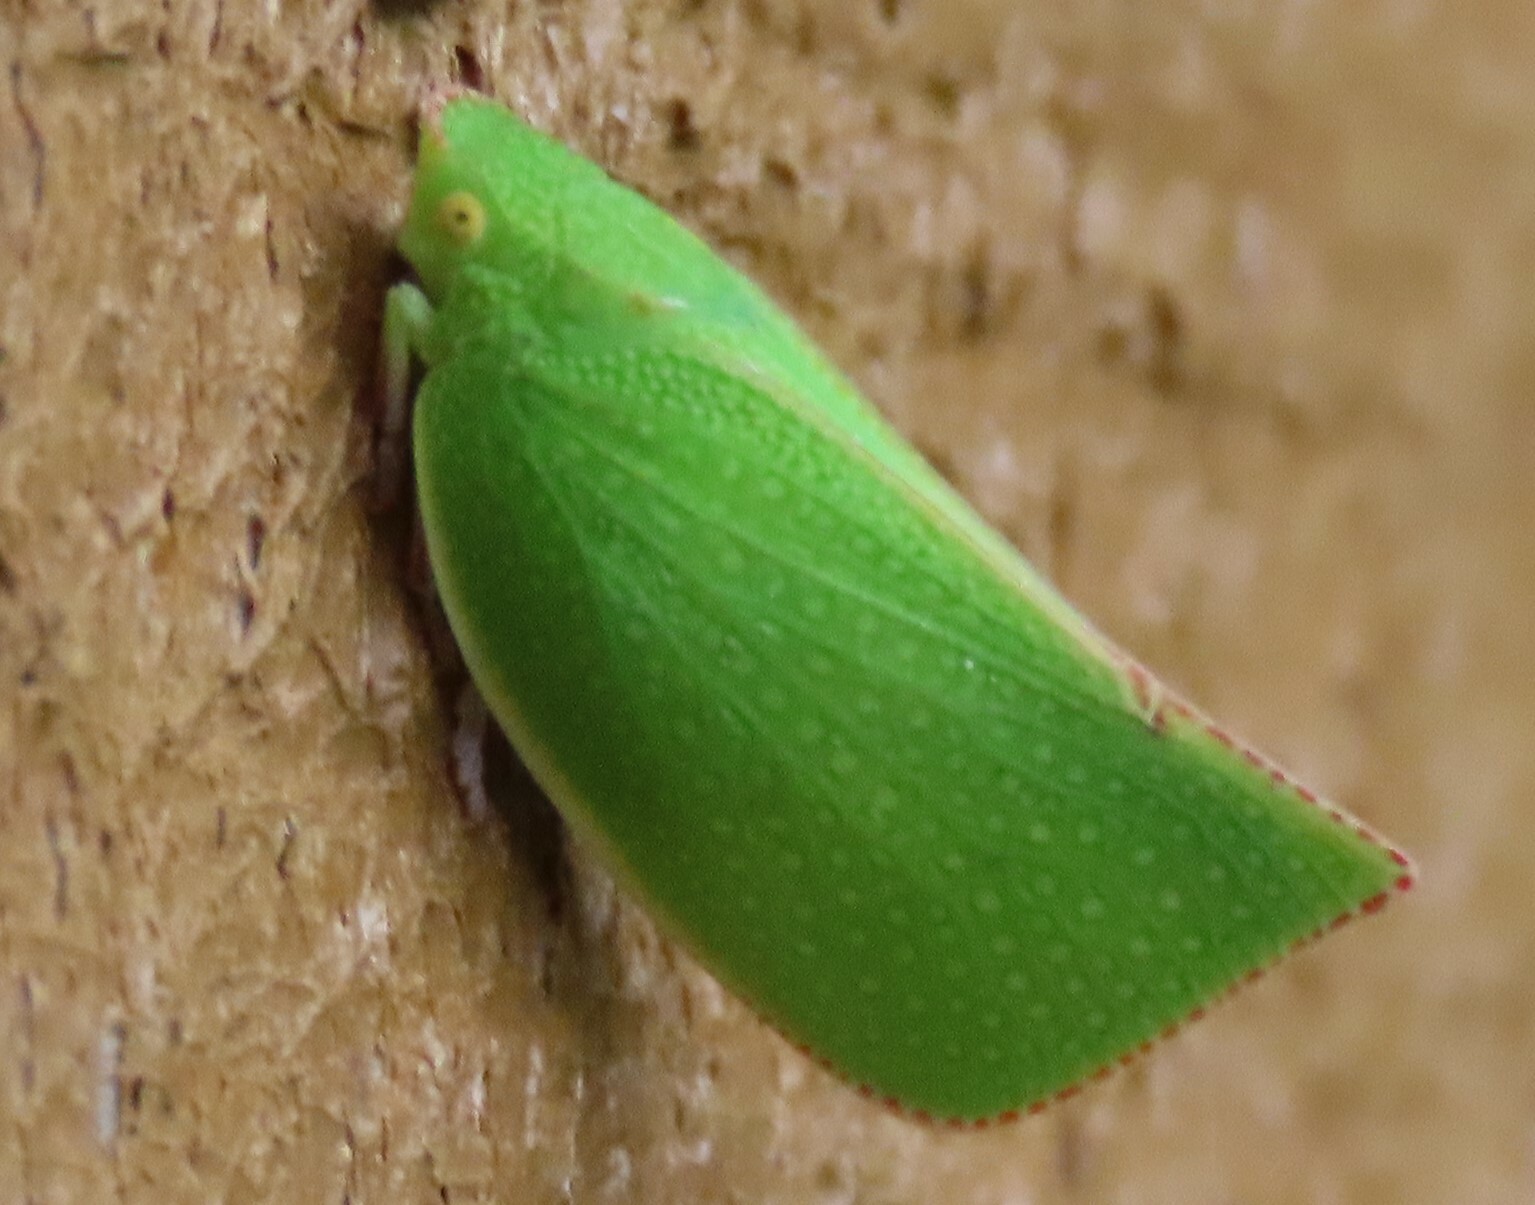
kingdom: Animalia
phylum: Arthropoda
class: Insecta
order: Hemiptera
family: Flatidae
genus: Siphanta
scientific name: Siphanta acuta
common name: Torpedo bug
